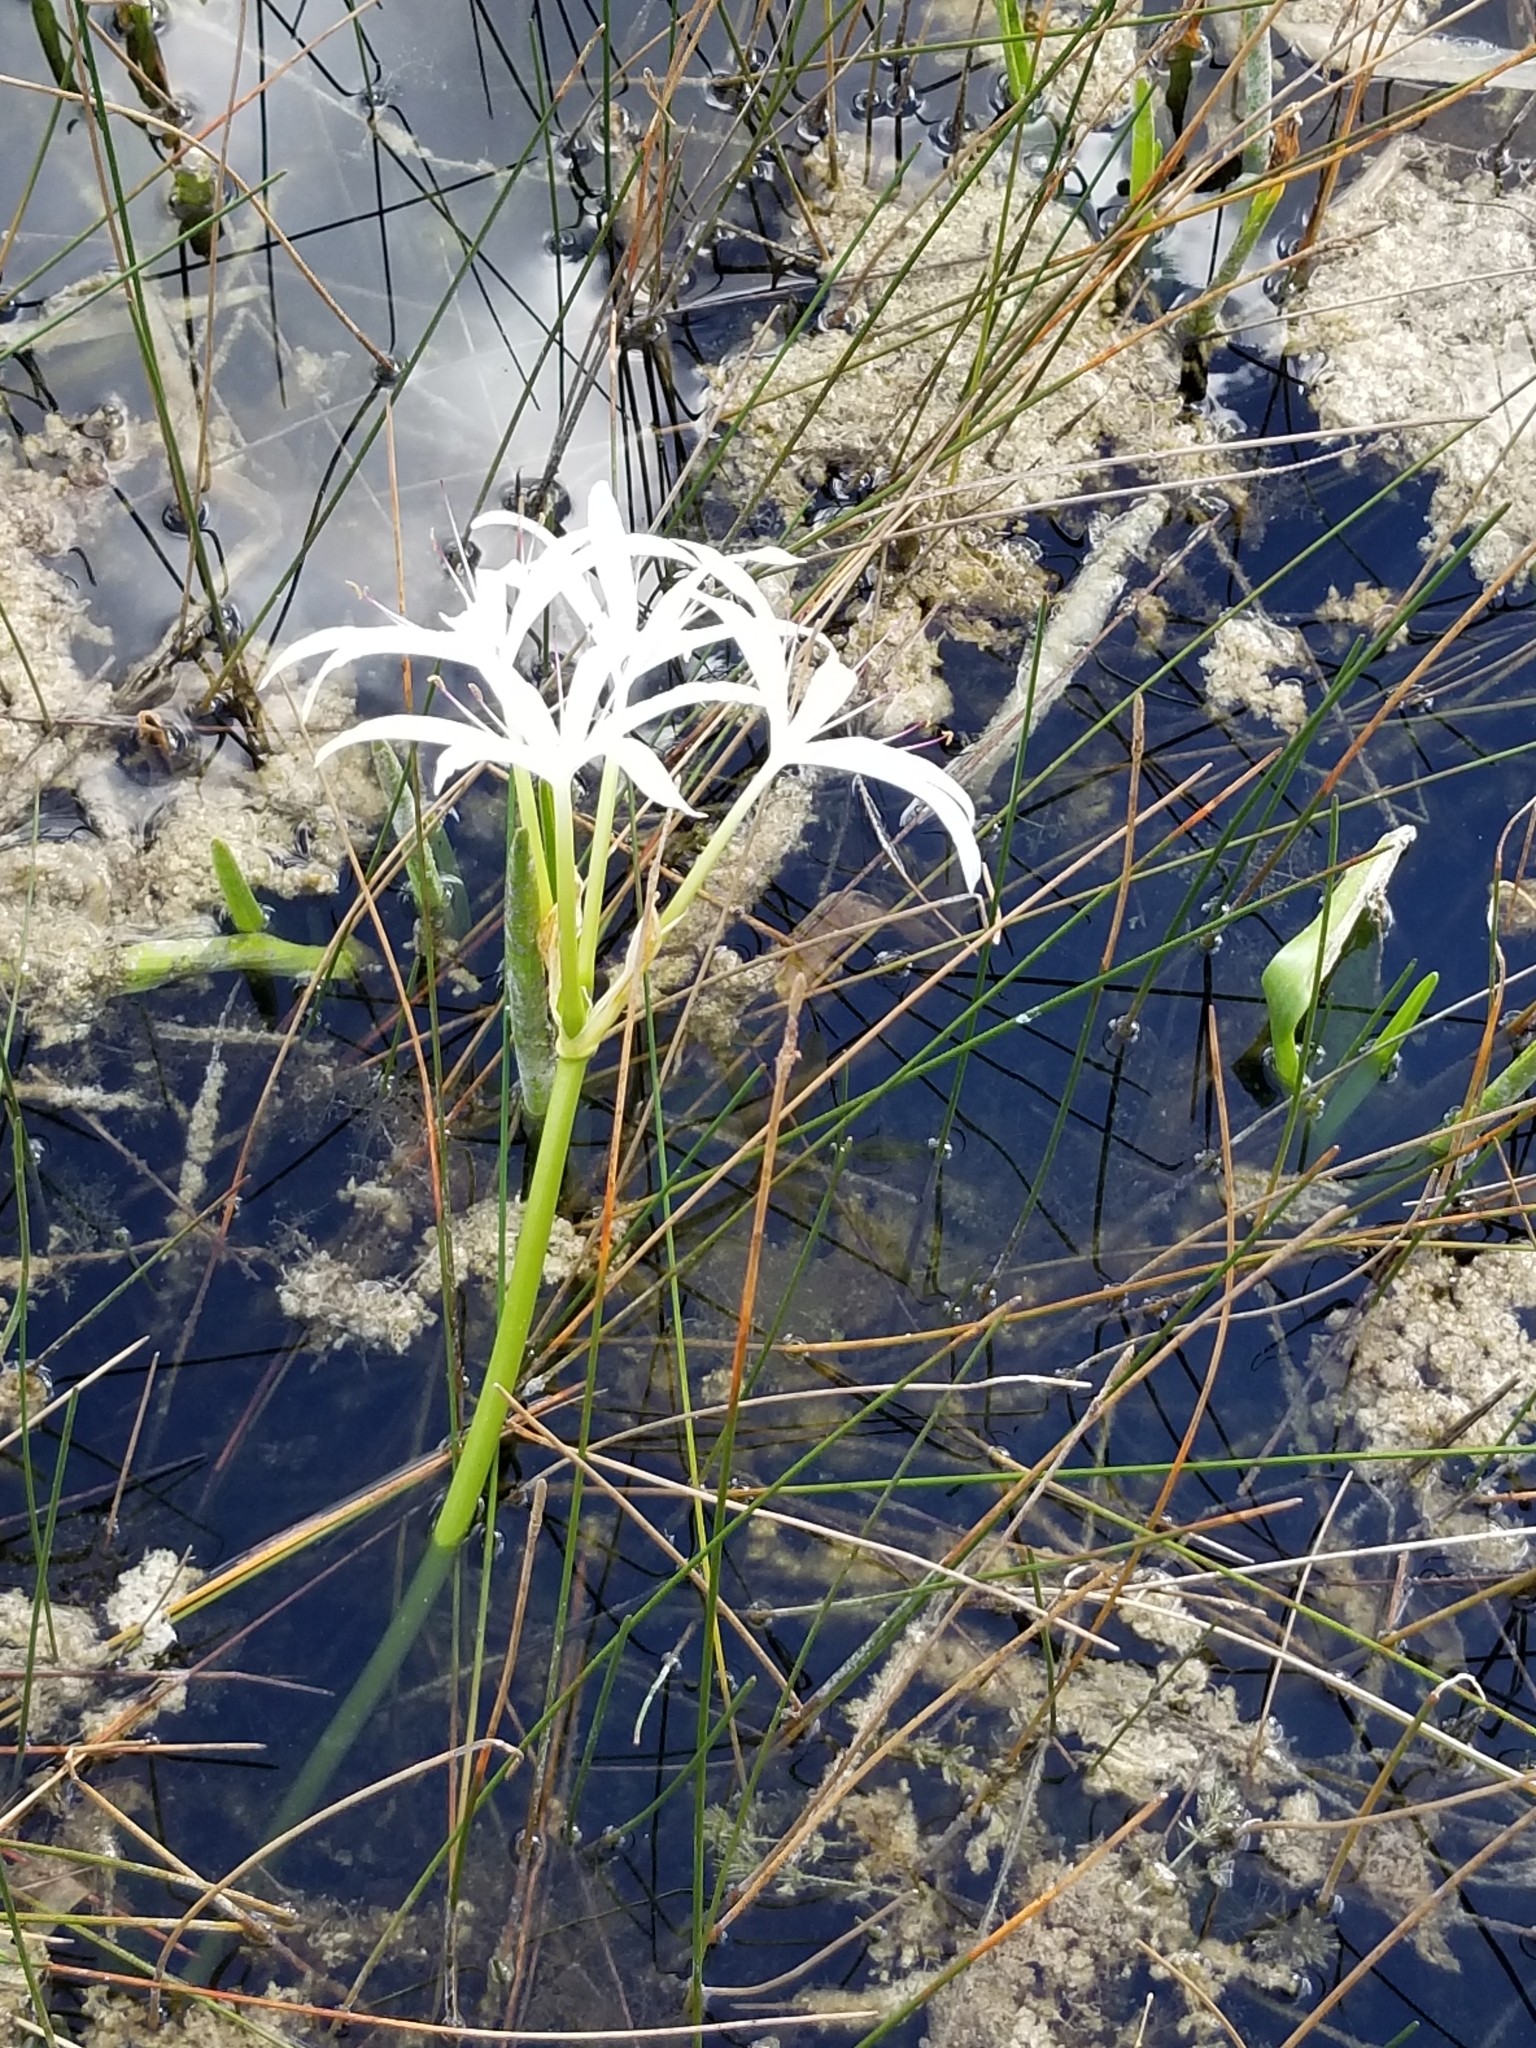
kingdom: Plantae
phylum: Tracheophyta
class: Liliopsida
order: Asparagales
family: Amaryllidaceae
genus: Crinum
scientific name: Crinum americanum
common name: Florida swamp-lily
